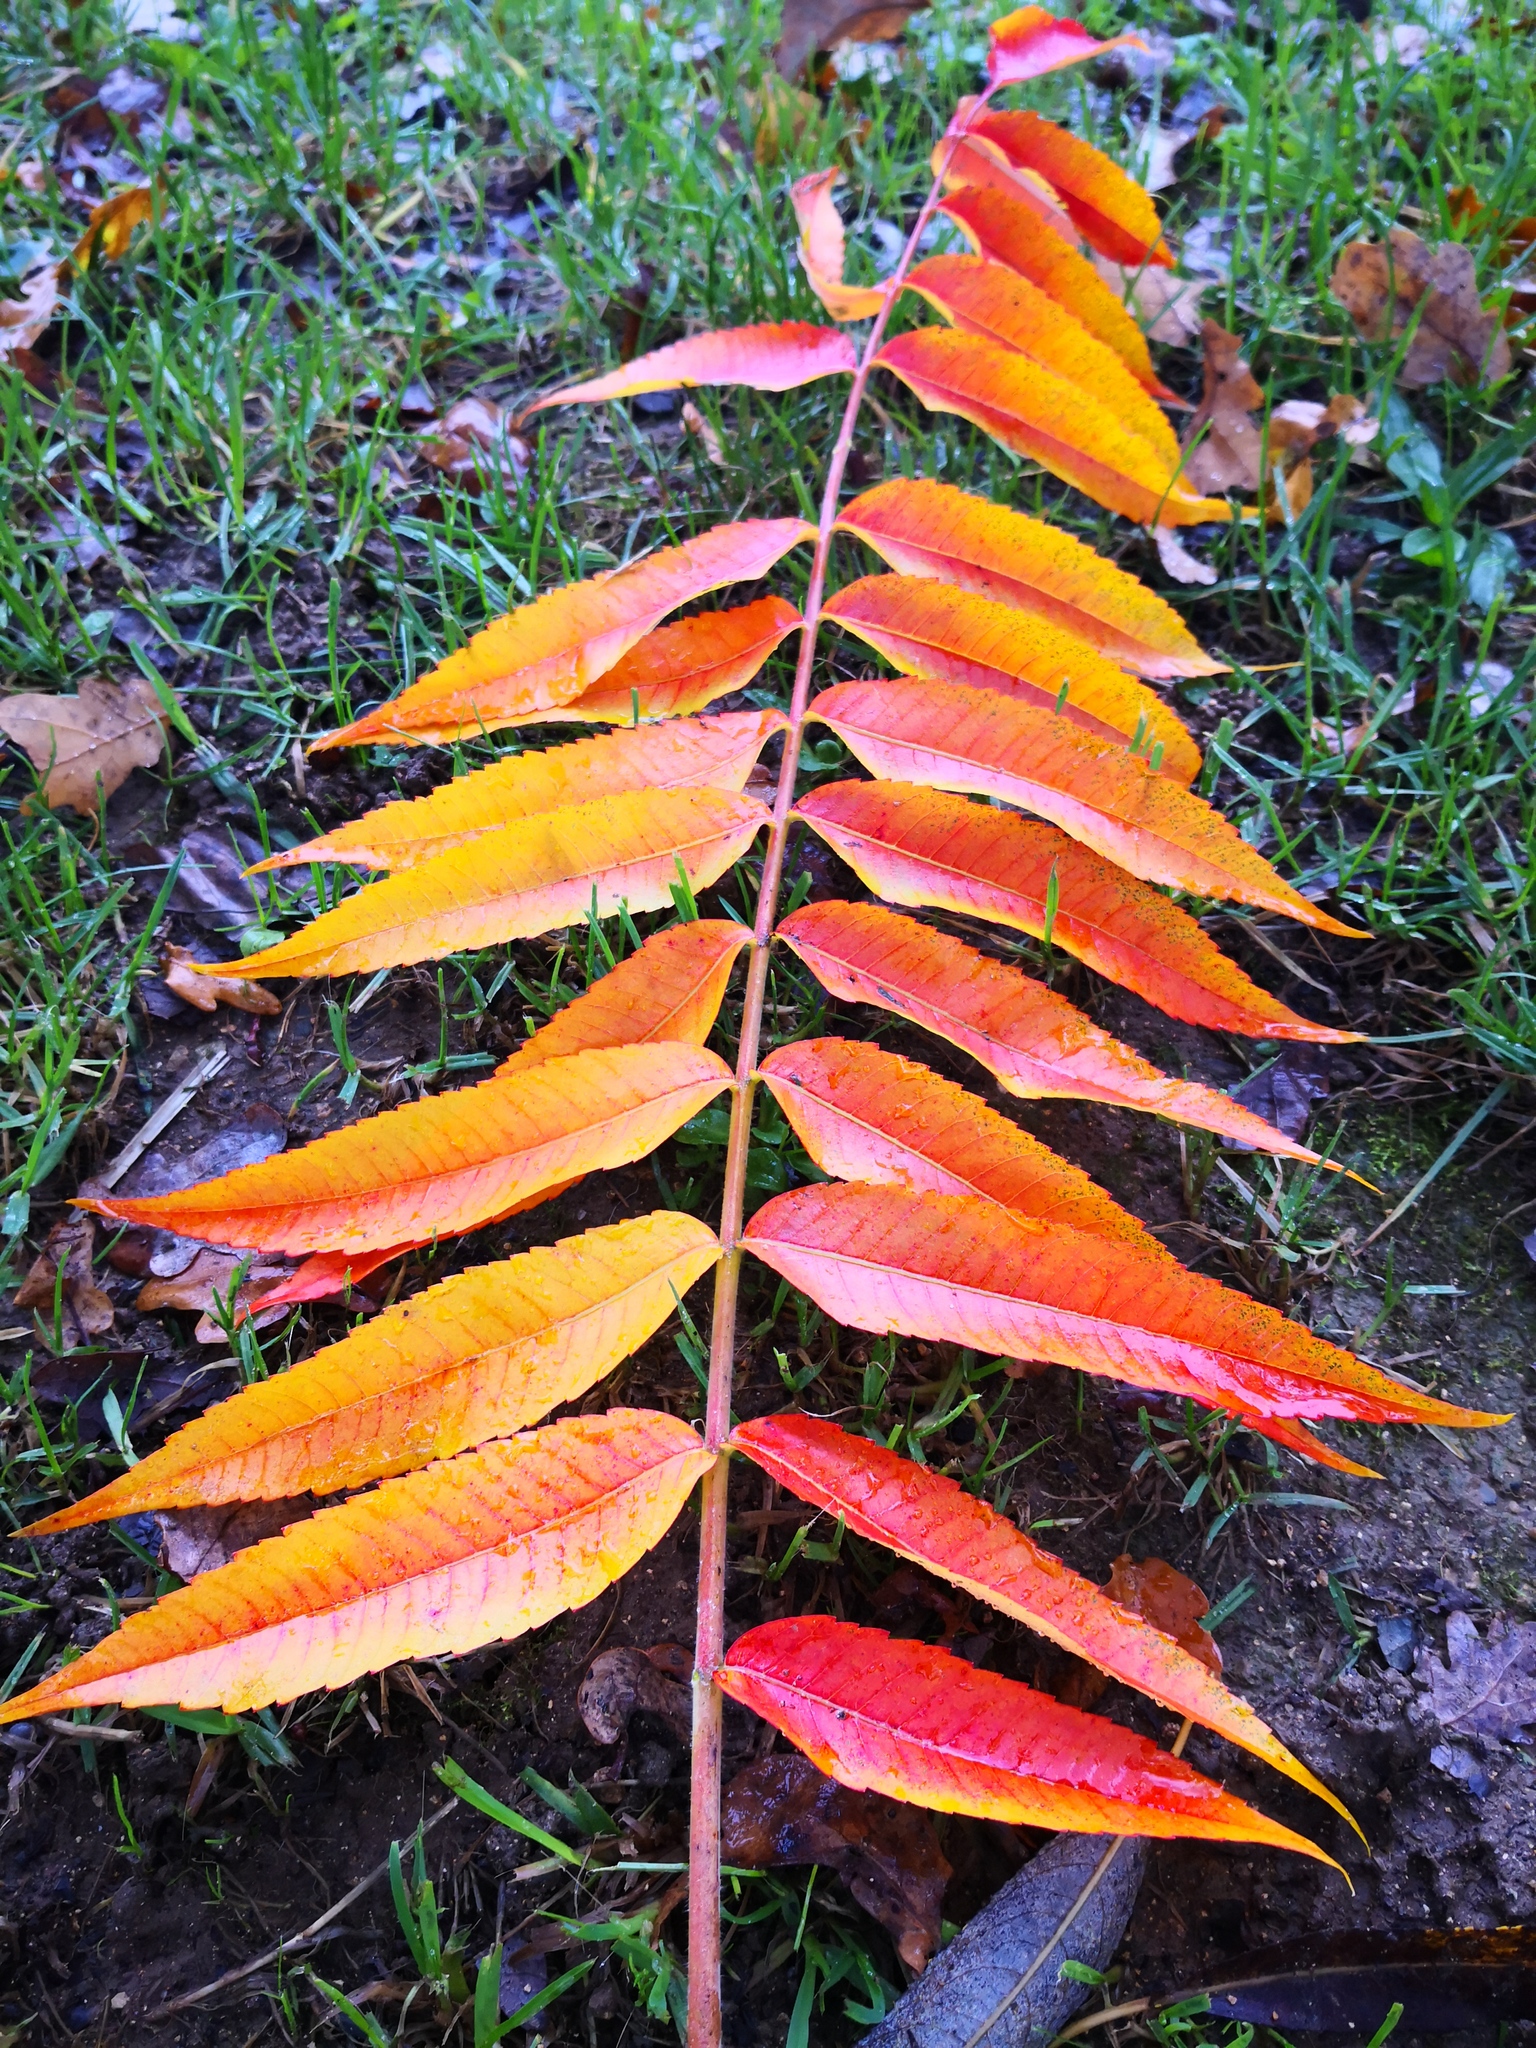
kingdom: Plantae
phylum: Tracheophyta
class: Magnoliopsida
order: Sapindales
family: Anacardiaceae
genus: Rhus
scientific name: Rhus typhina
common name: Staghorn sumac
